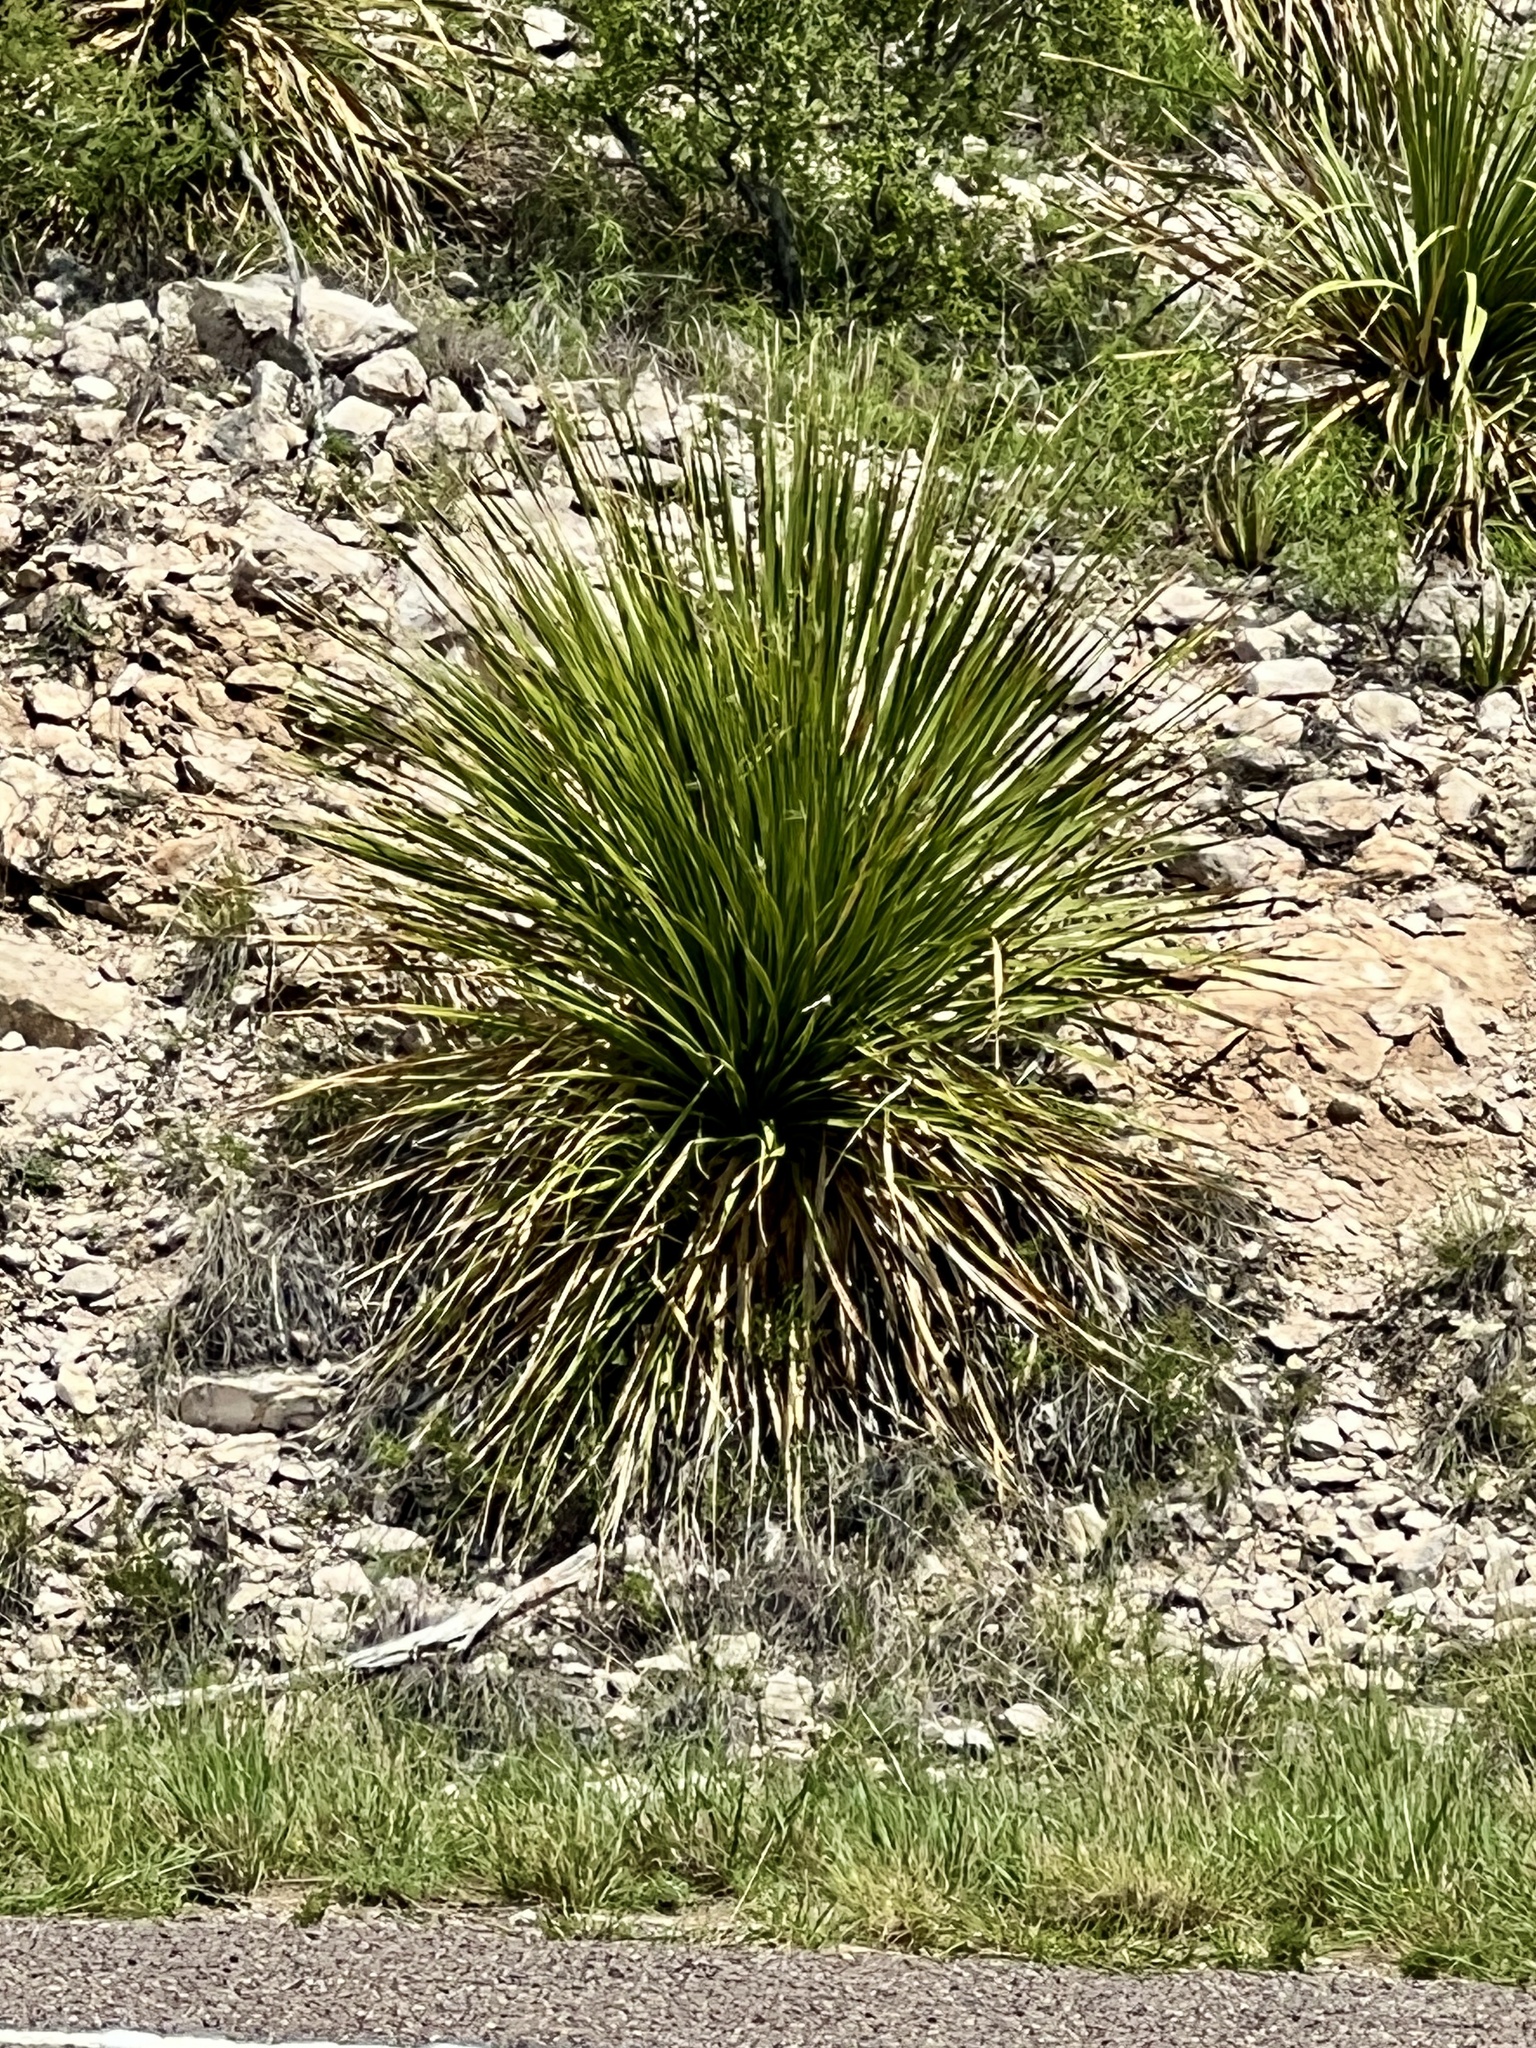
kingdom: Plantae
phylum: Tracheophyta
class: Liliopsida
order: Asparagales
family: Asparagaceae
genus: Dasylirion
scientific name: Dasylirion texanum
